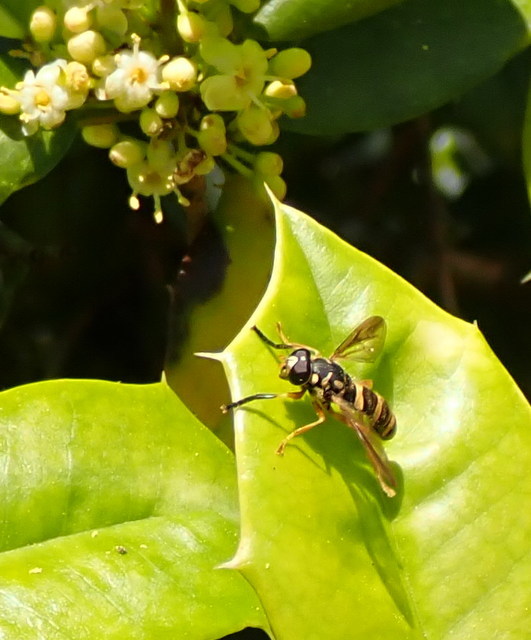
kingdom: Animalia
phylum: Arthropoda
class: Insecta
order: Diptera
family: Syrphidae
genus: Temnostoma
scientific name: Temnostoma daochum
